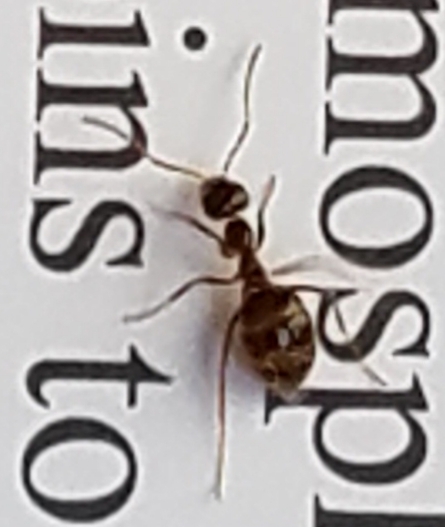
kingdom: Animalia
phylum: Arthropoda
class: Insecta
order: Hymenoptera
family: Formicidae
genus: Prenolepis
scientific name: Prenolepis imparis
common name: Small honey ant
